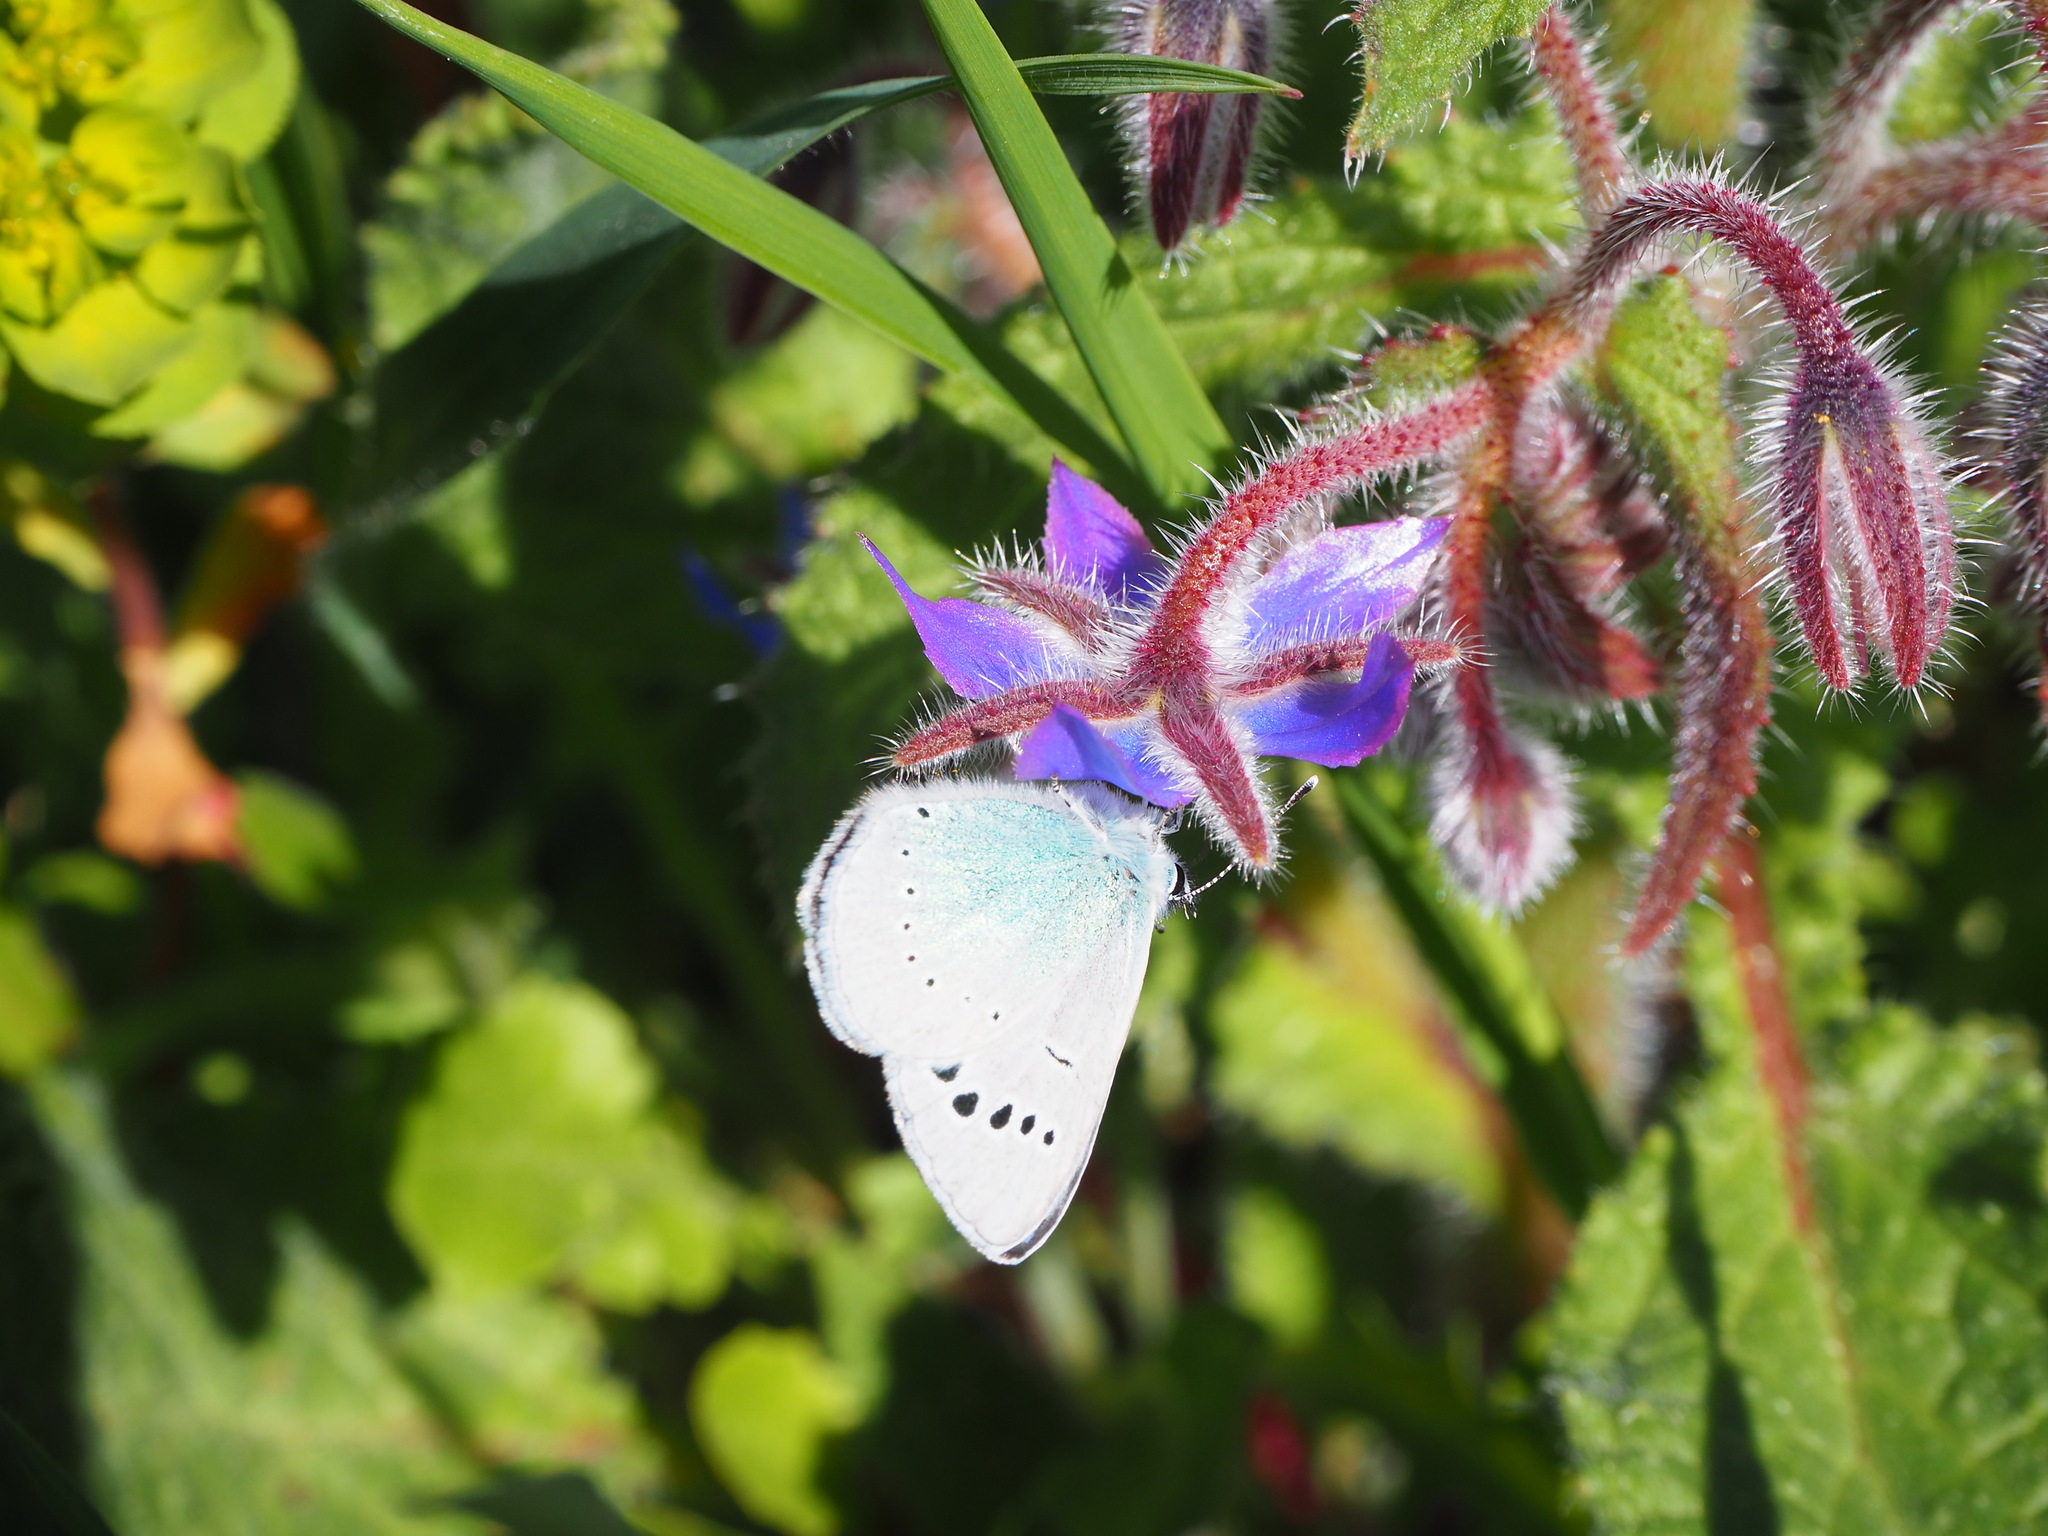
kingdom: Animalia
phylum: Arthropoda
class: Insecta
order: Lepidoptera
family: Lycaenidae
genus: Glaucopsyche
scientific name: Glaucopsyche alexis
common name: Green-underside blue
